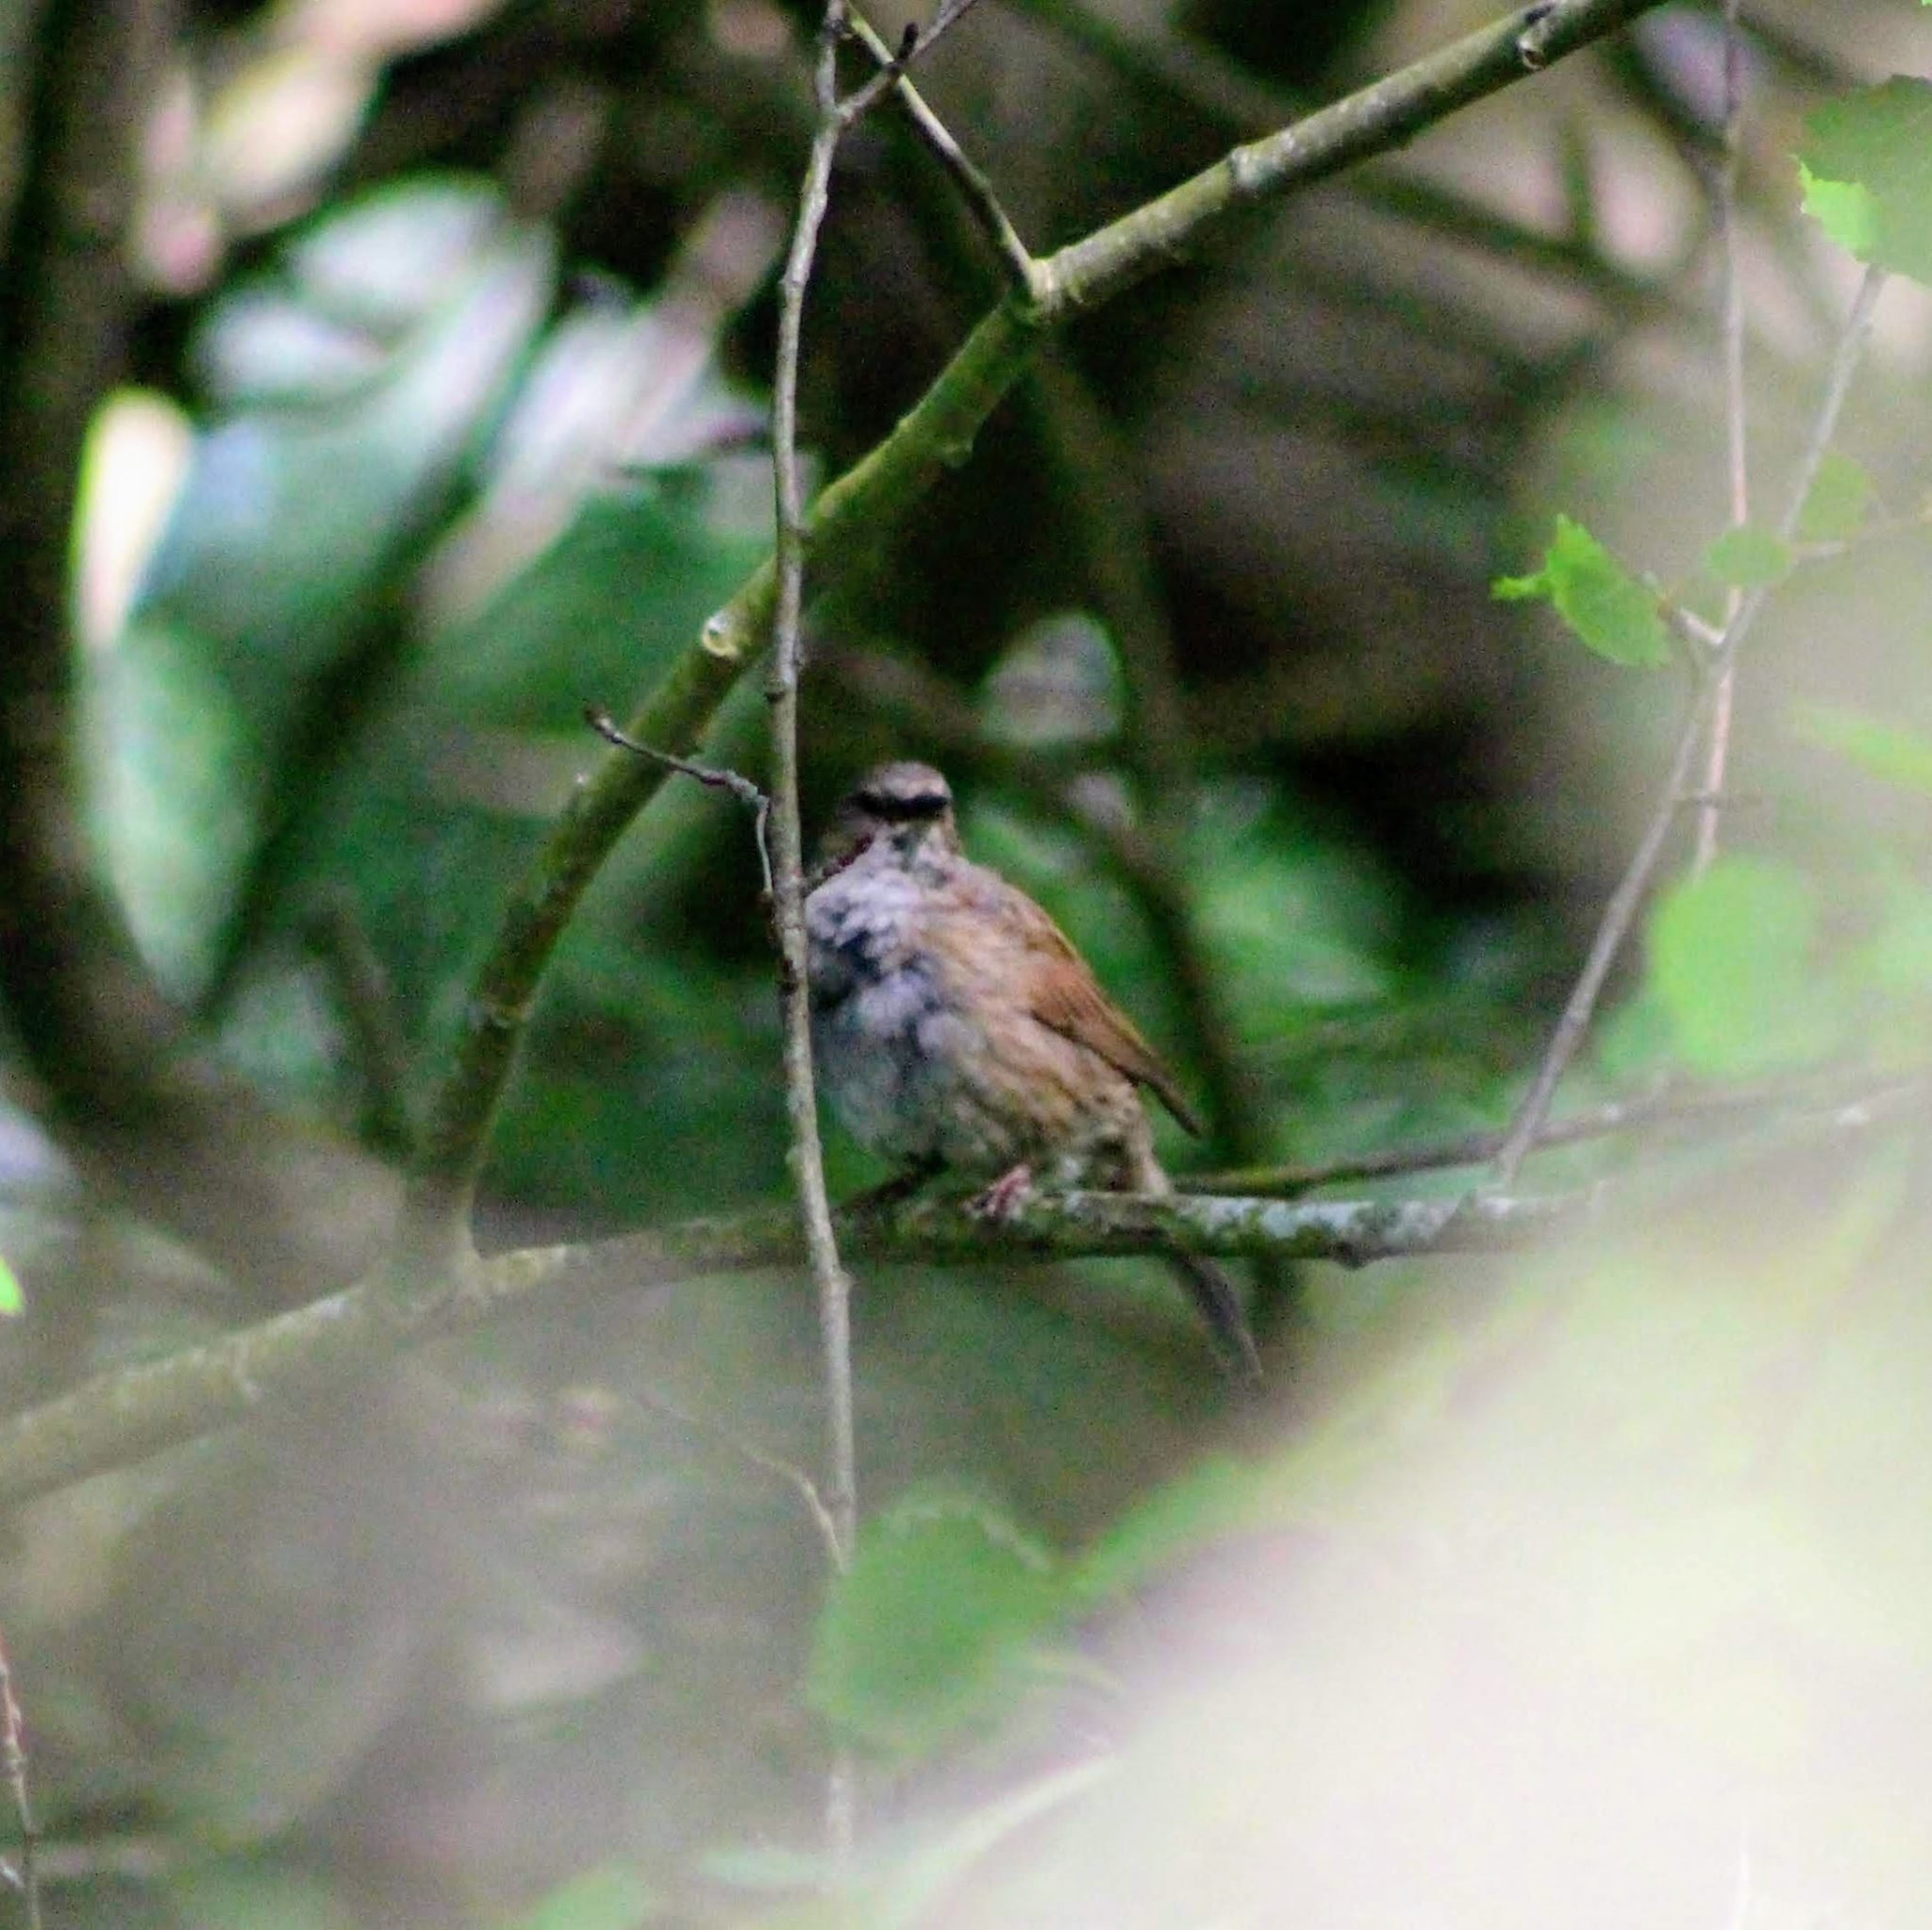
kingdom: Animalia
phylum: Chordata
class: Aves
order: Passeriformes
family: Prunellidae
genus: Prunella
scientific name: Prunella modularis
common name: Dunnock
